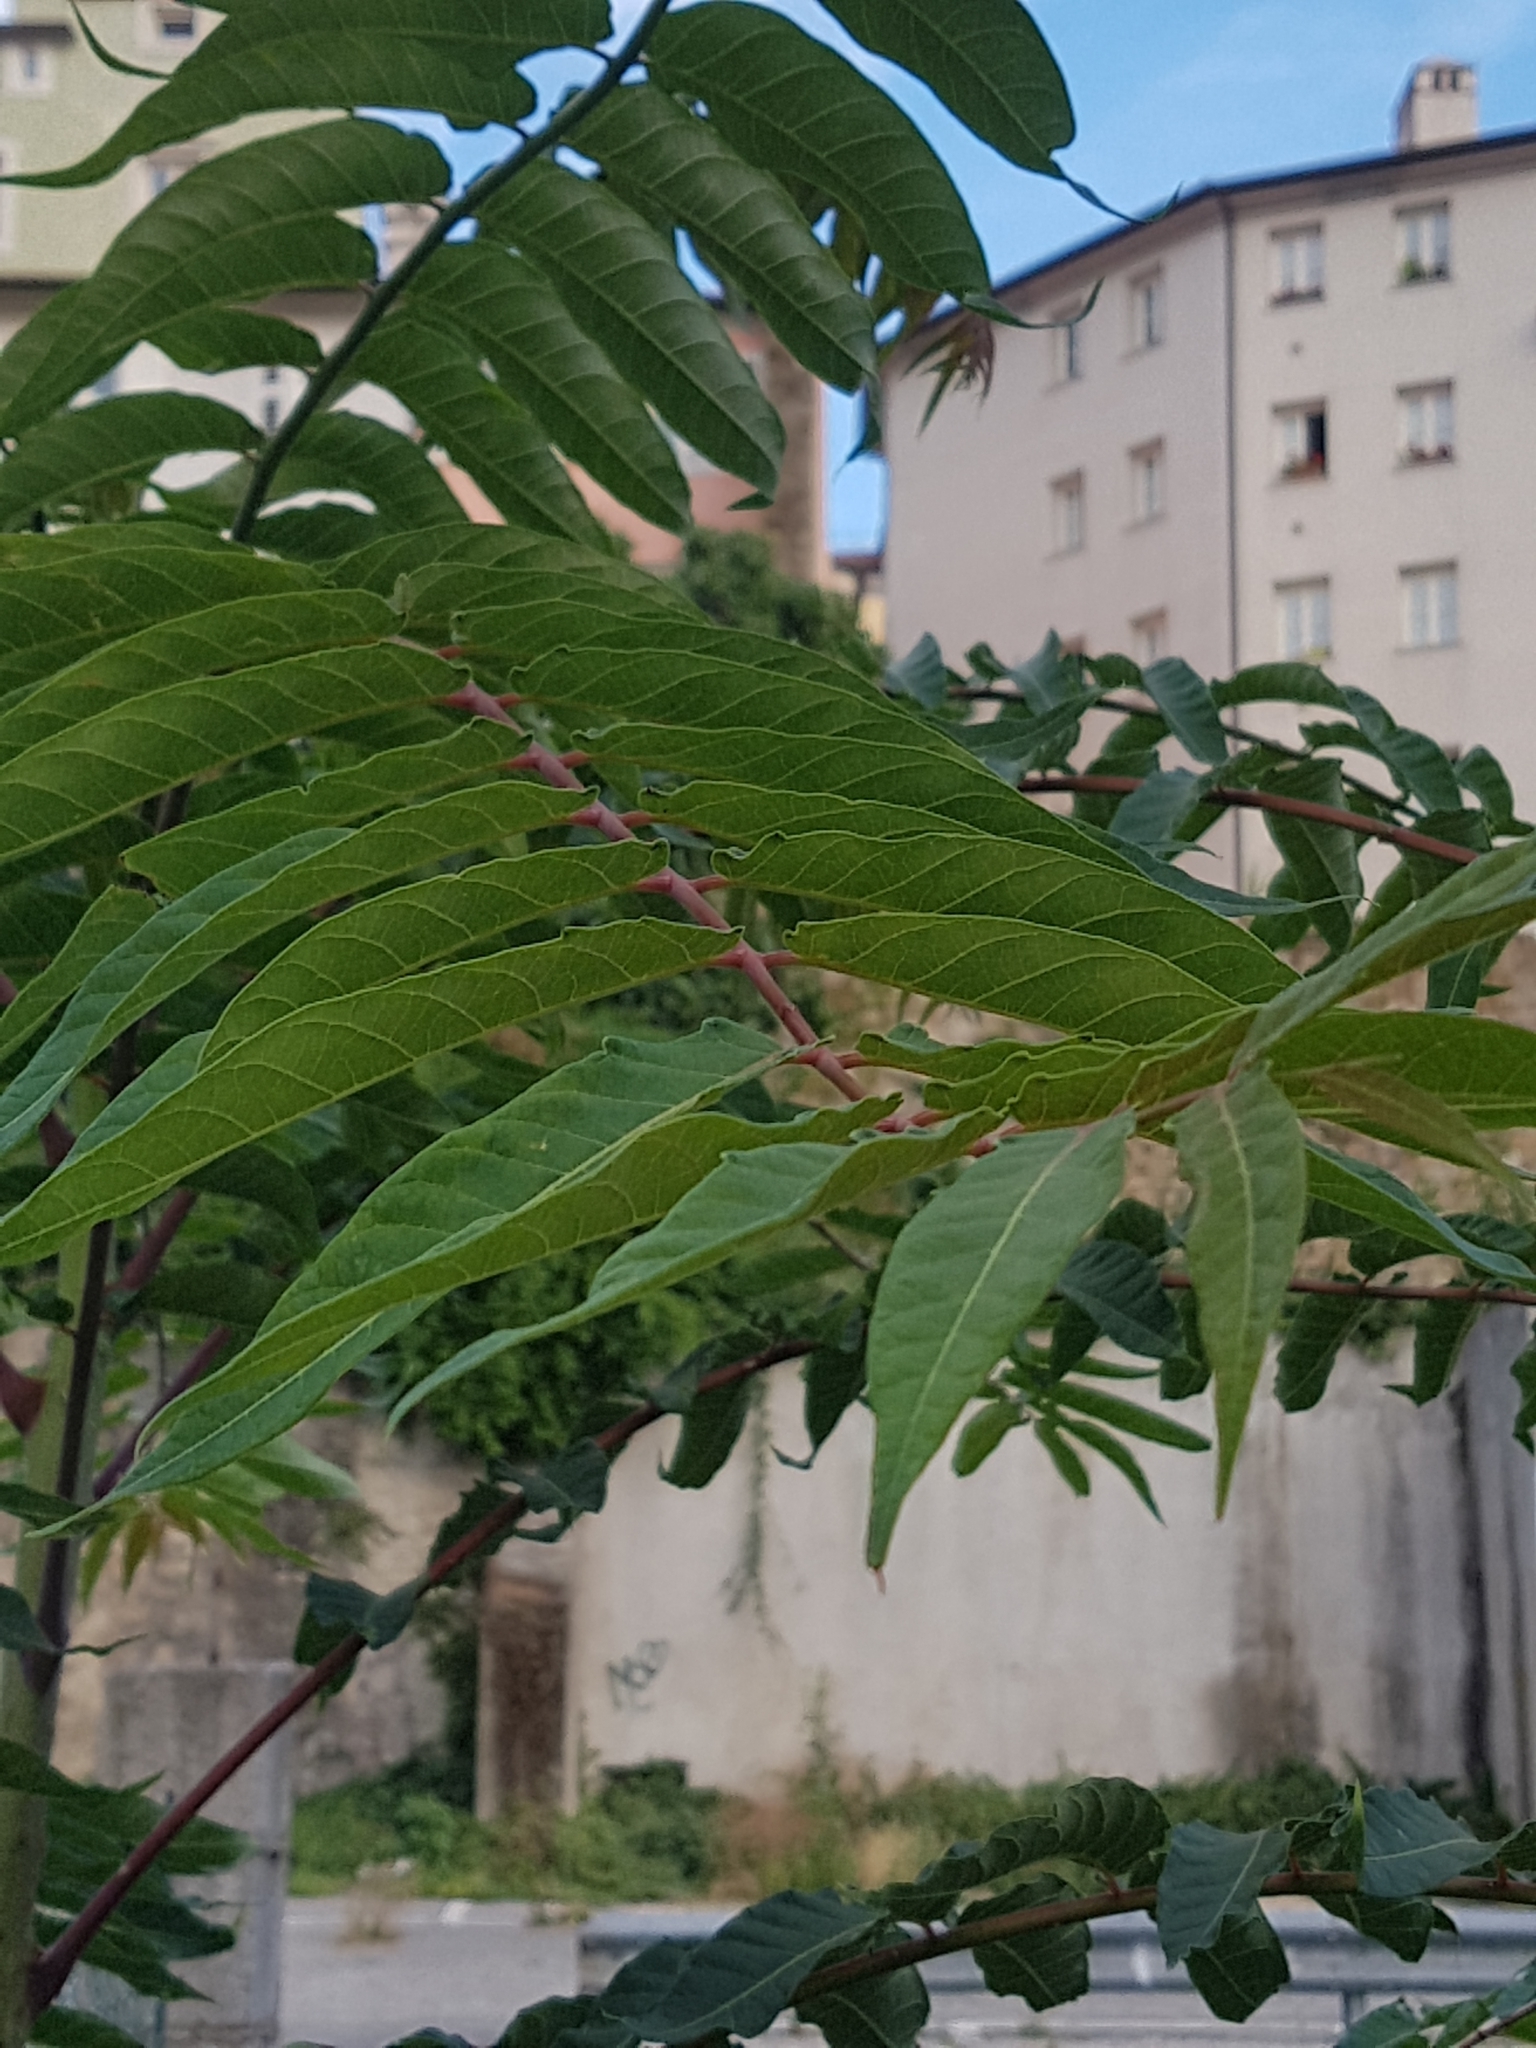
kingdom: Plantae
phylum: Tracheophyta
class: Magnoliopsida
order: Sapindales
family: Simaroubaceae
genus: Ailanthus
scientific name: Ailanthus altissima
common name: Tree-of-heaven
